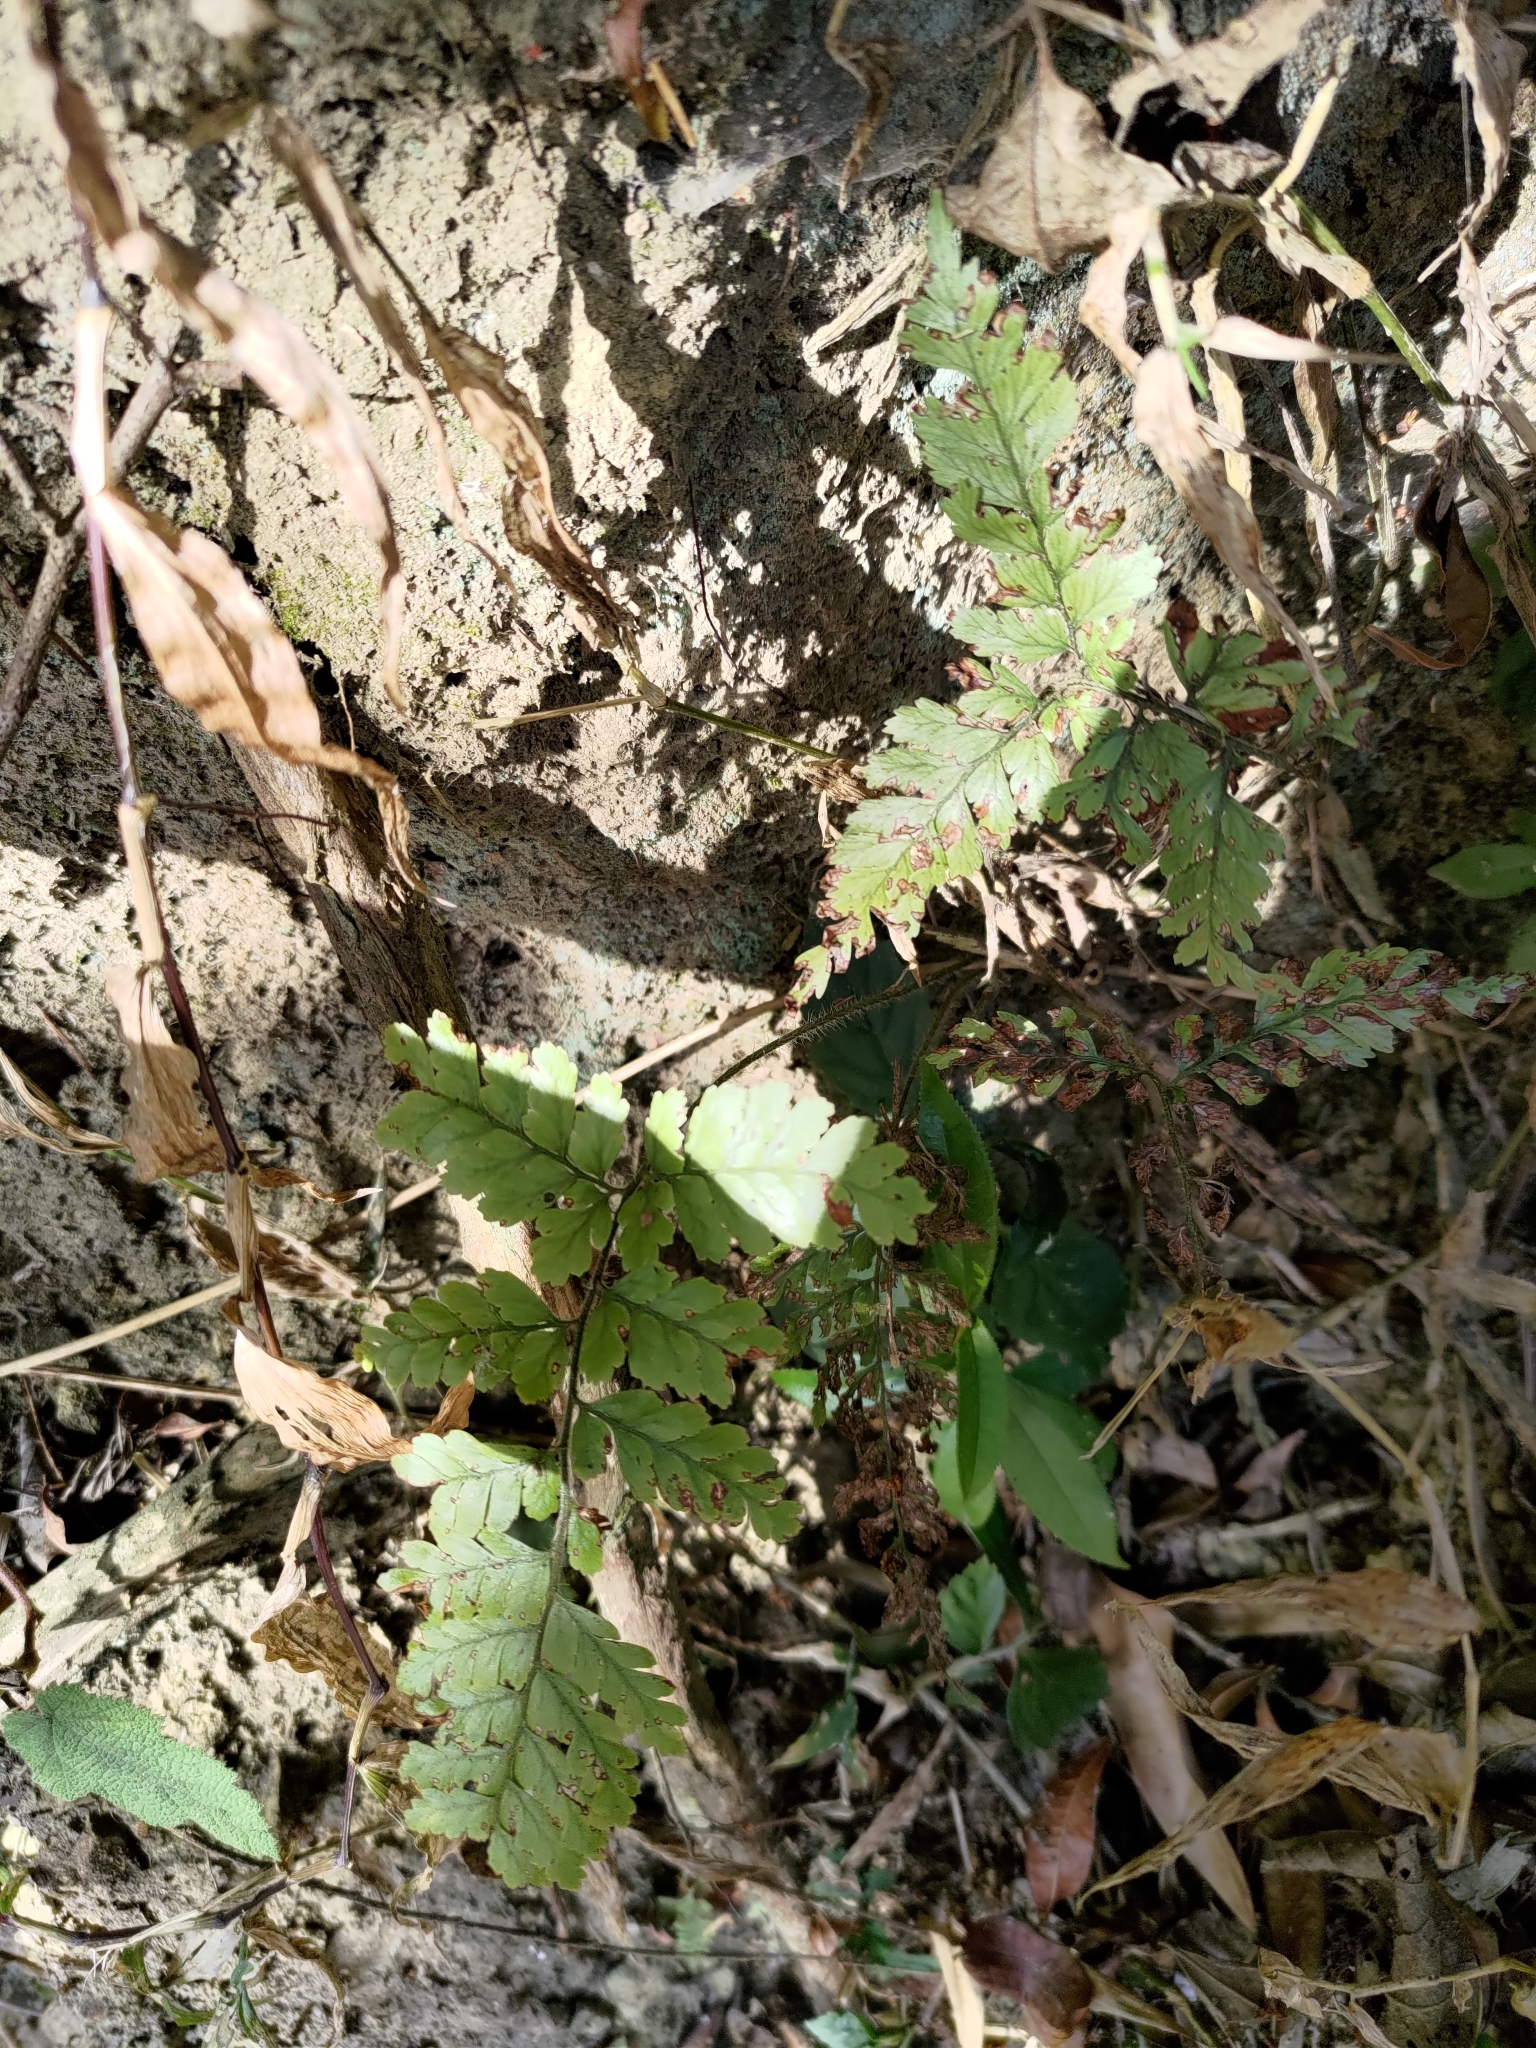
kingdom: Plantae
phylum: Tracheophyta
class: Polypodiopsida
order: Polypodiales
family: Dennstaedtiaceae
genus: Microlepia
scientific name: Microlepia strigosa
